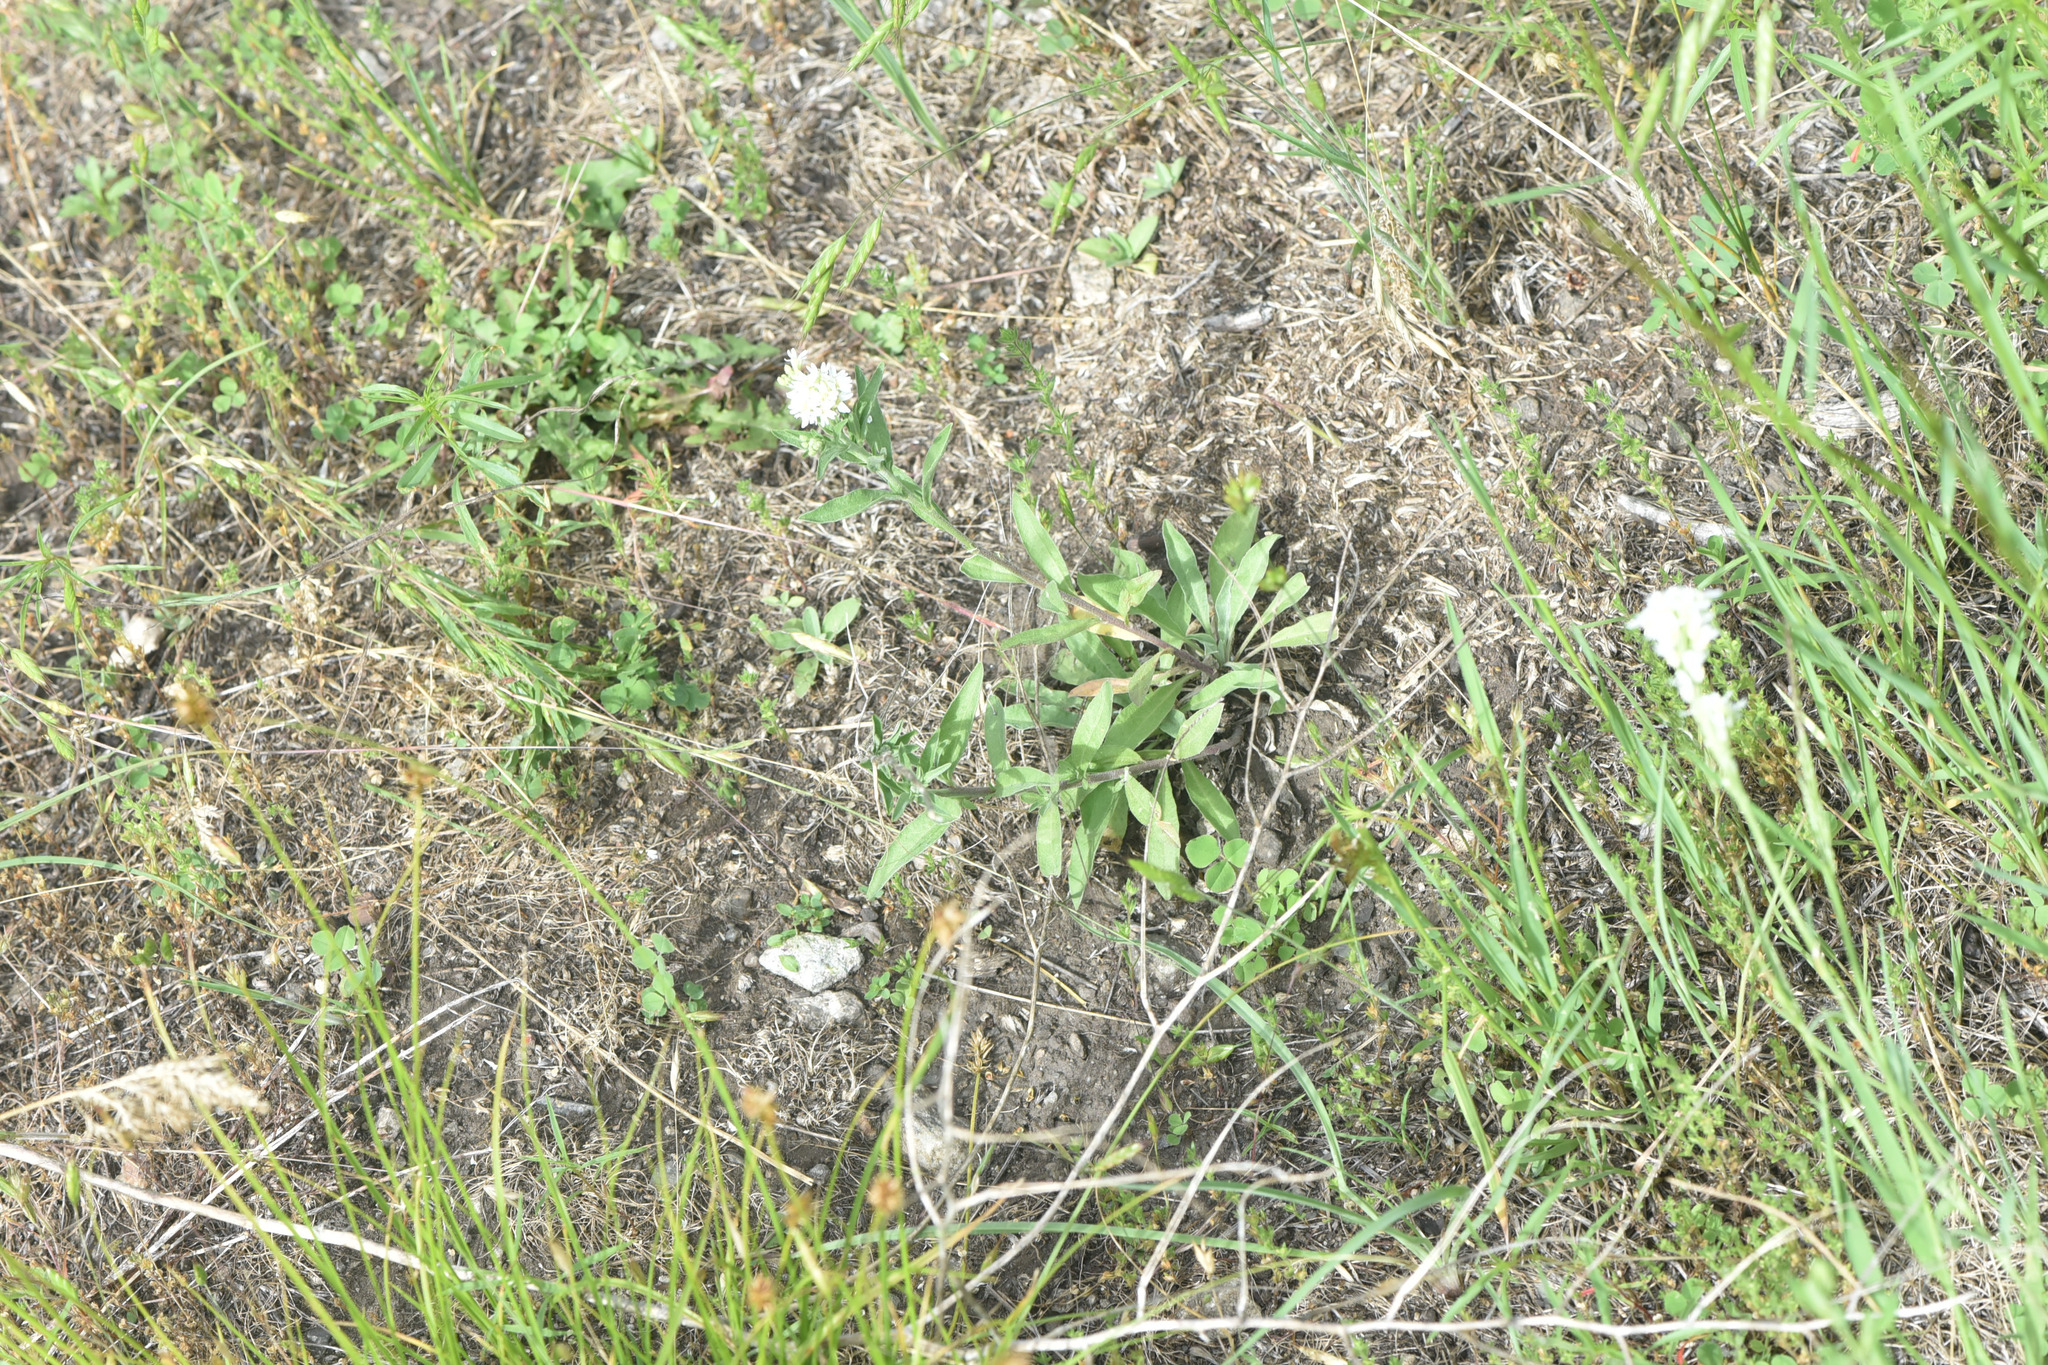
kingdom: Plantae
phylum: Tracheophyta
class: Magnoliopsida
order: Brassicales
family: Brassicaceae
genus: Berteroa
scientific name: Berteroa incana
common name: Hoary alison
